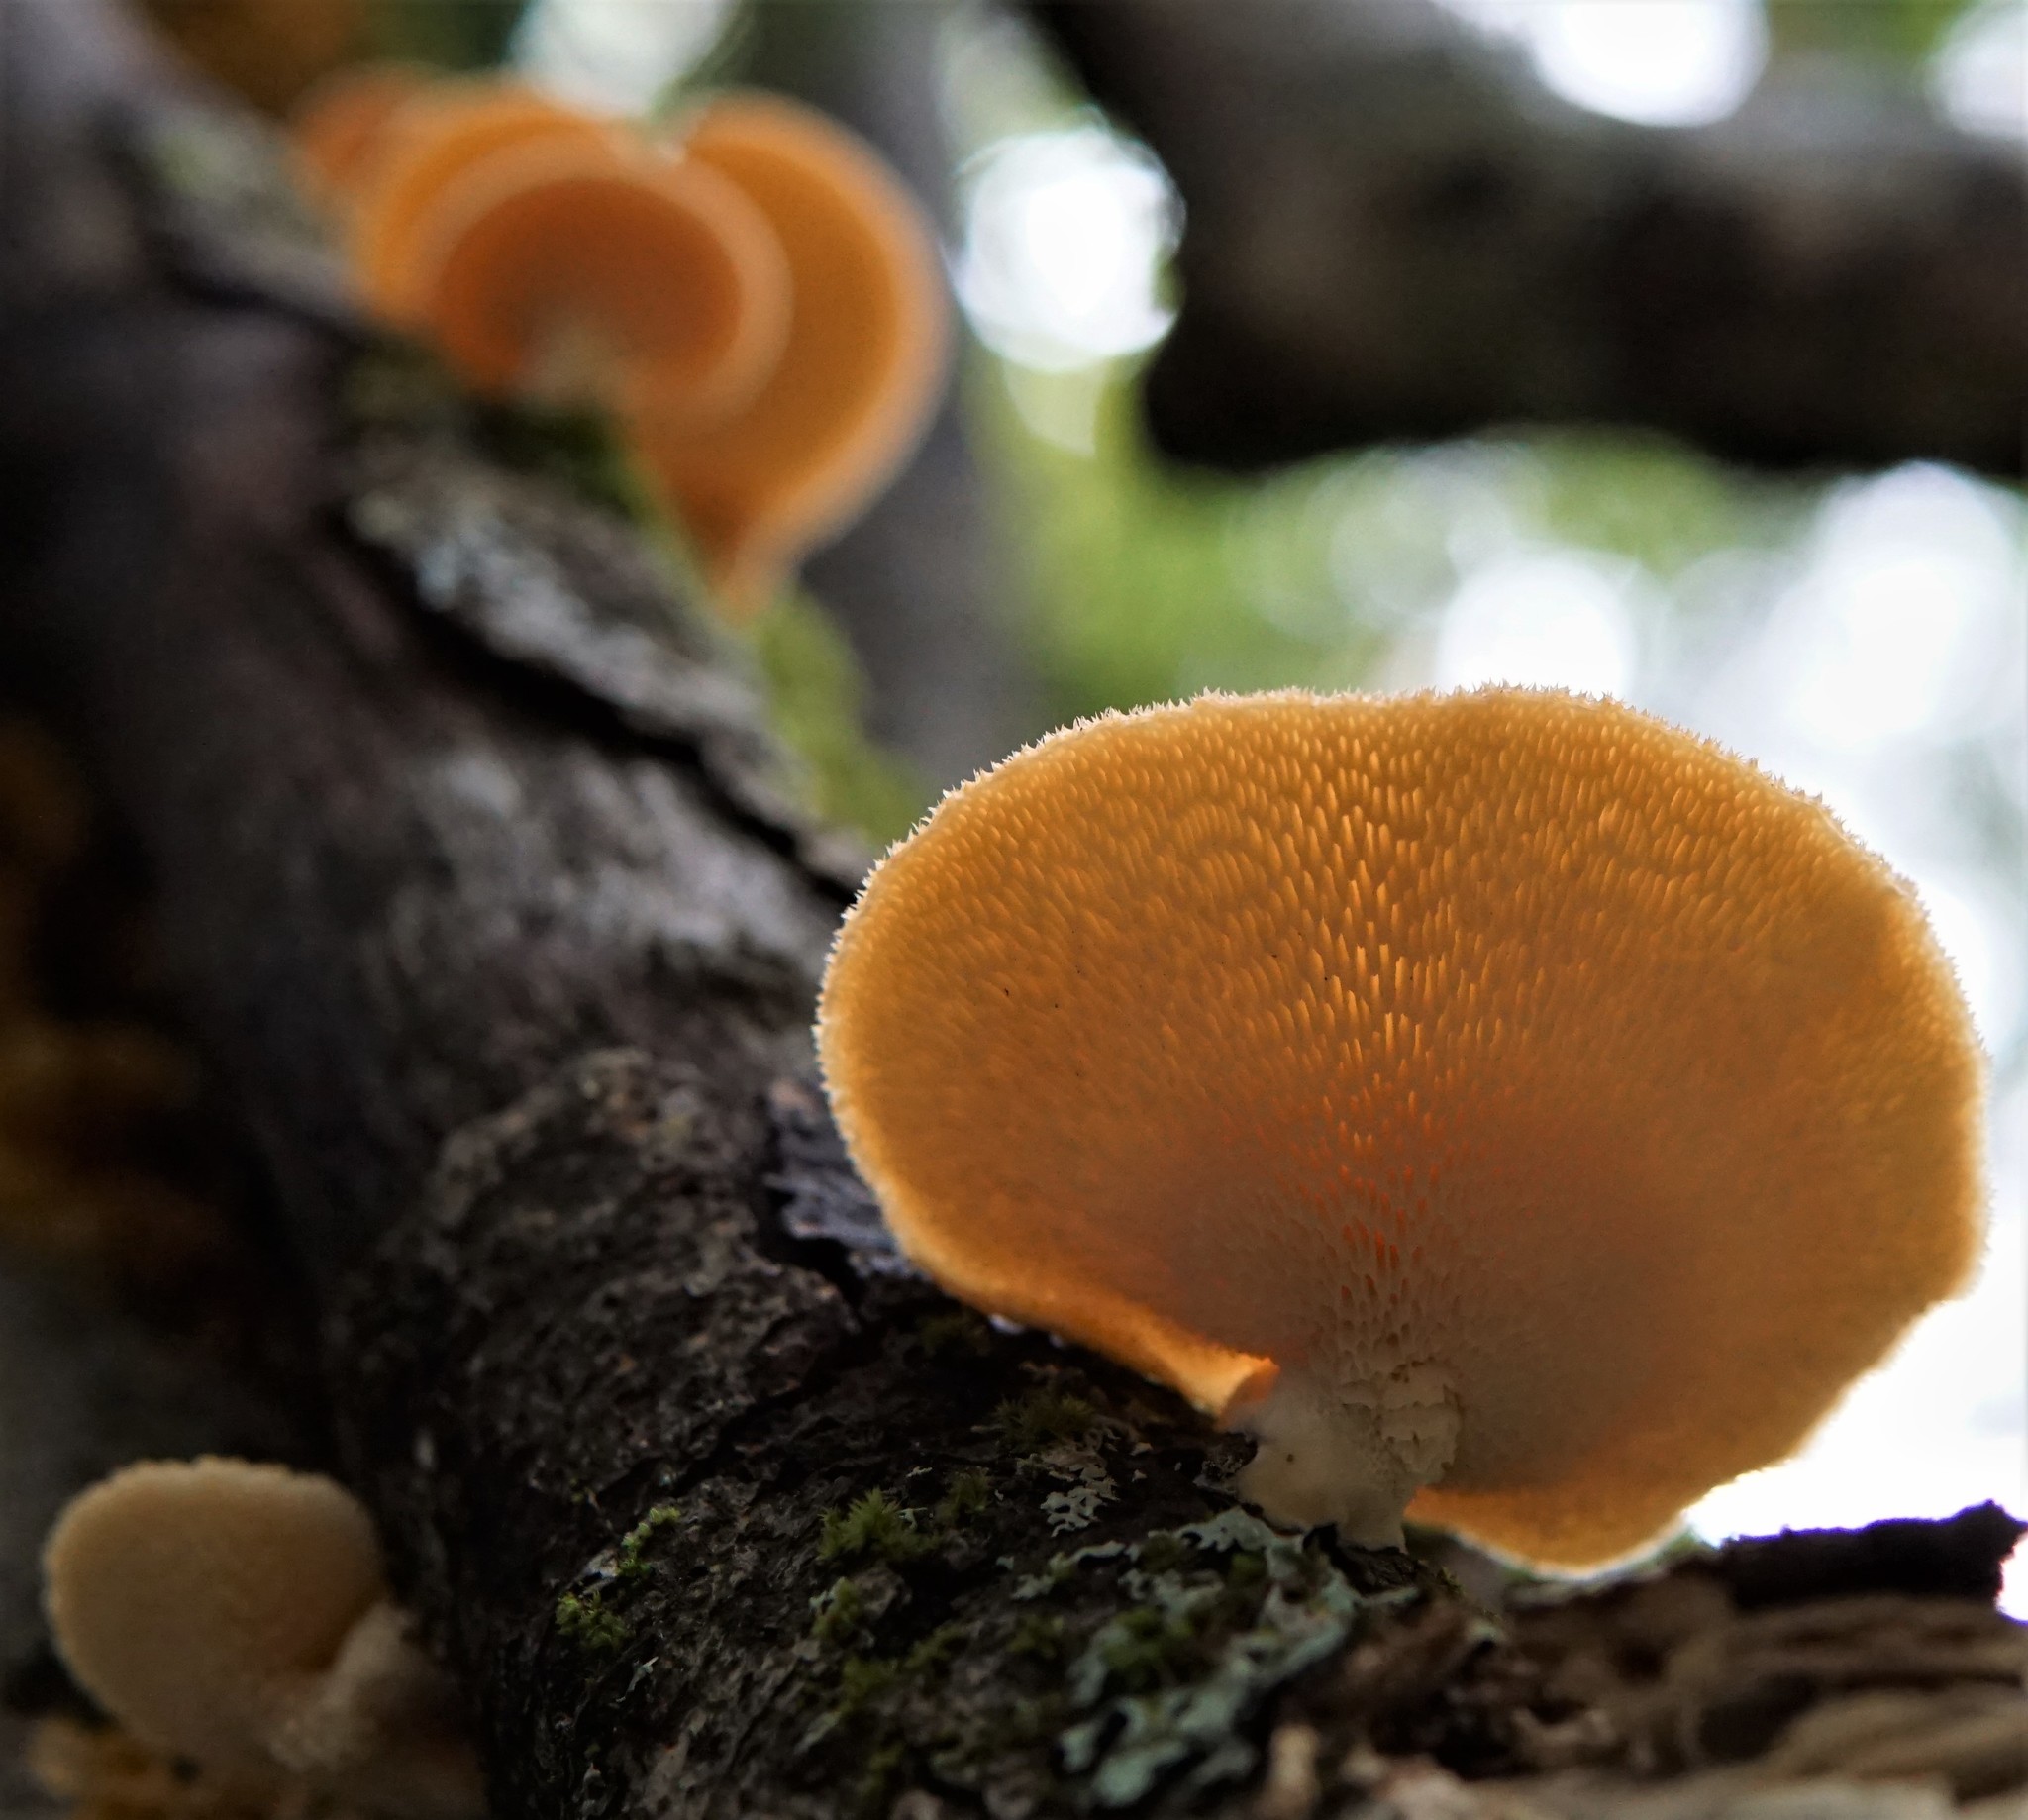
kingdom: Fungi
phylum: Basidiomycota
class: Agaricomycetes
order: Polyporales
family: Polyporaceae
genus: Neofavolus
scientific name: Neofavolus alveolaris
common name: Hexagonal-pored polypore
